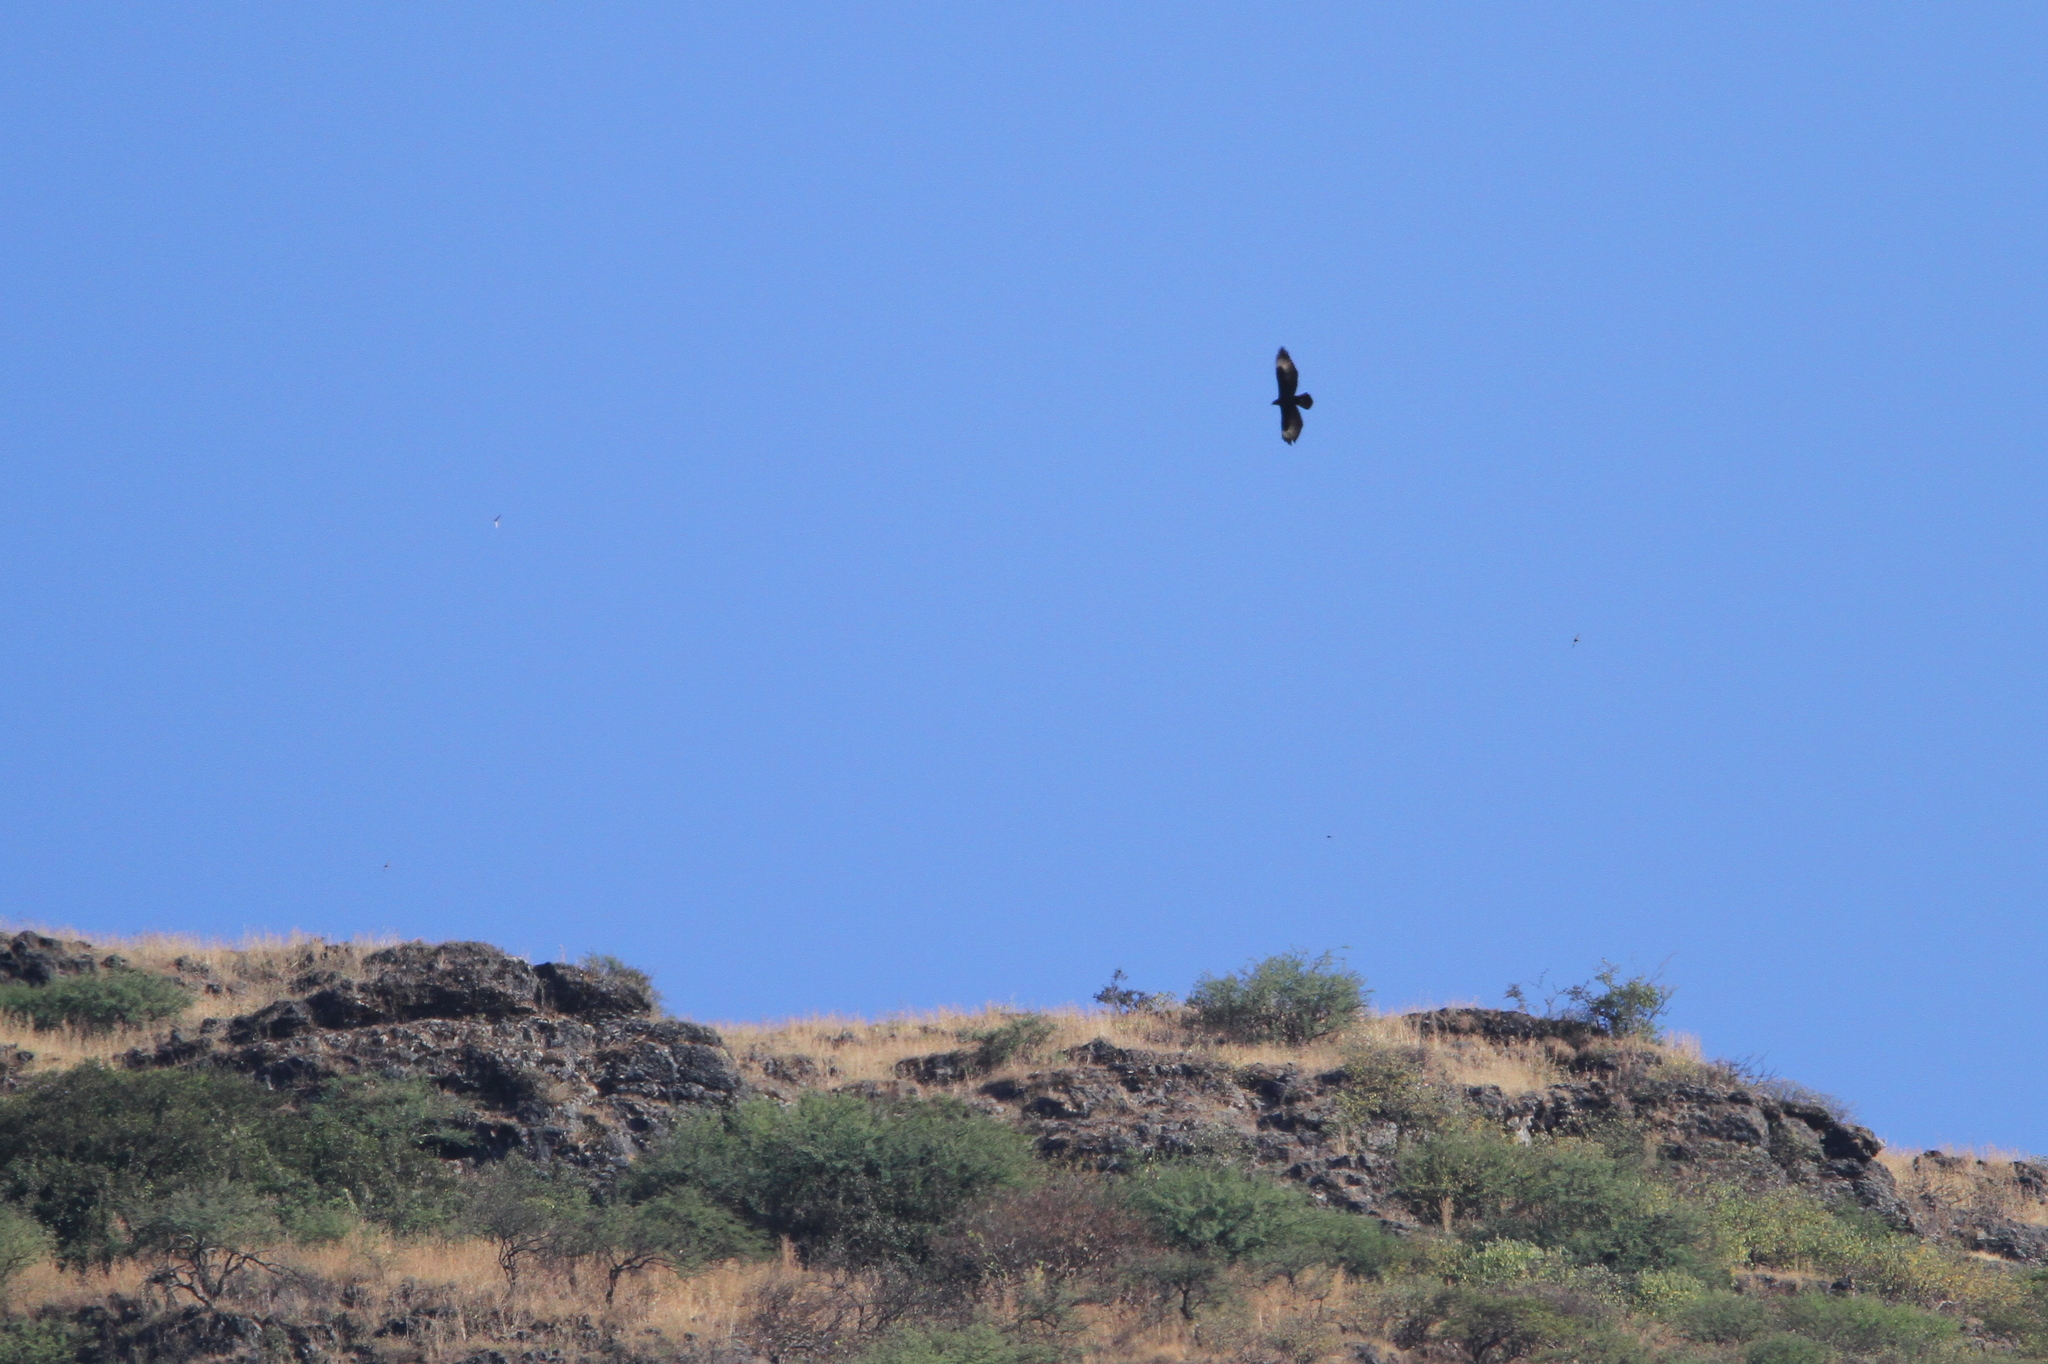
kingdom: Animalia
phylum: Chordata
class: Aves
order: Accipitriformes
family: Accipitridae
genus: Aquila
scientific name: Aquila verreauxii
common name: Verreaux's eagle
